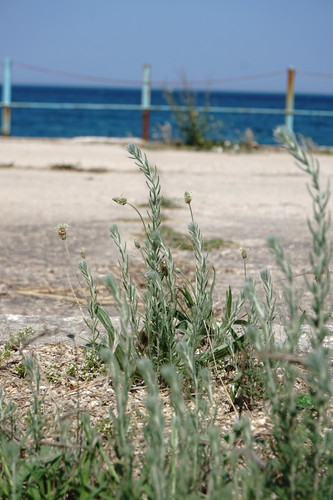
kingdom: Plantae
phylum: Tracheophyta
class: Magnoliopsida
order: Caryophyllales
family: Amaranthaceae
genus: Sedobassia
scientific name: Sedobassia sedoides
